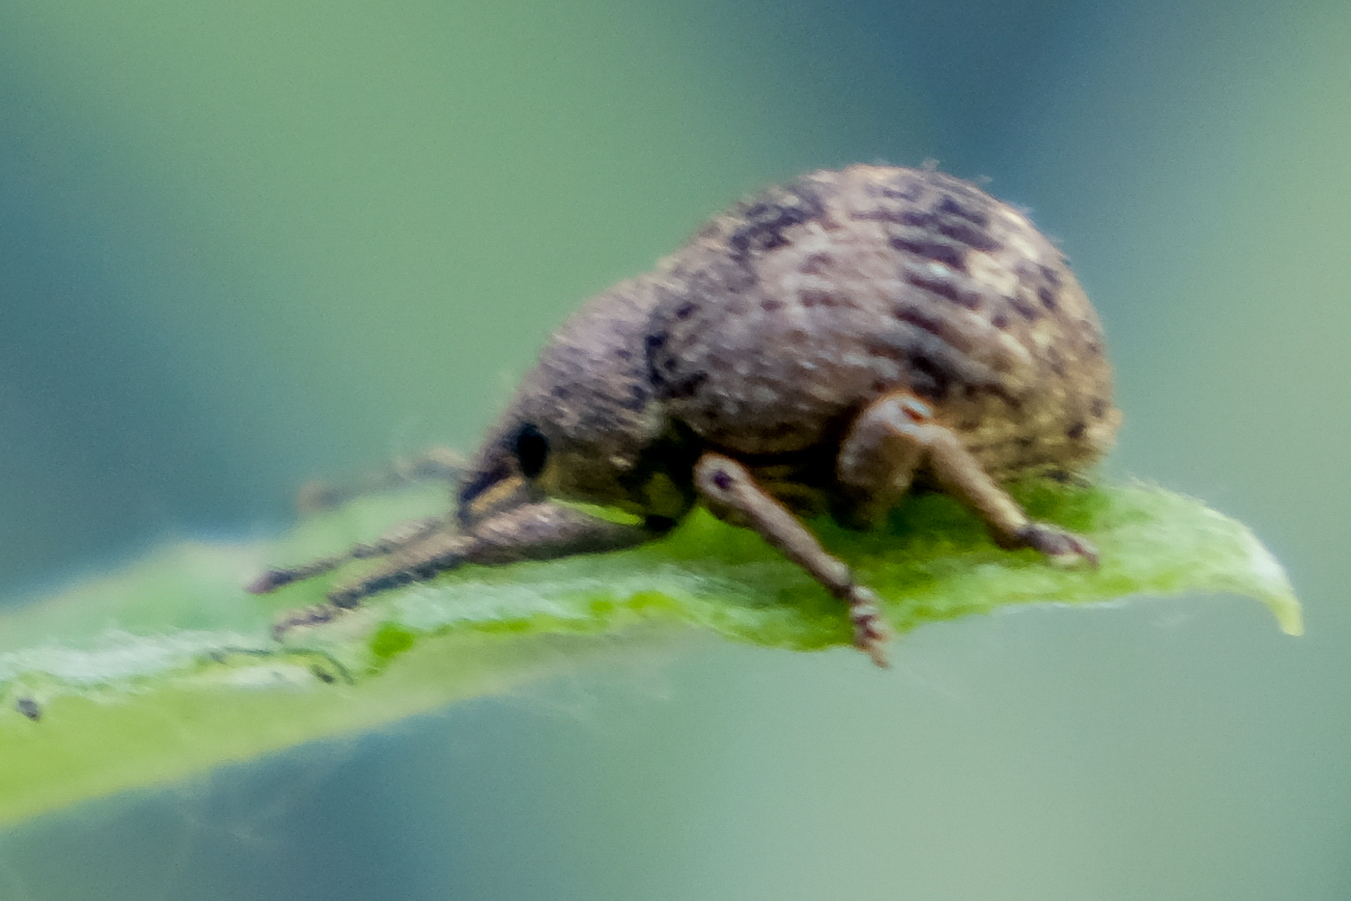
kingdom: Animalia
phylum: Arthropoda
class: Insecta
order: Coleoptera
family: Curculionidae
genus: Pseudocneorhinus
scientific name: Pseudocneorhinus bifasciatus
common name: Two-banded japanese weevil
